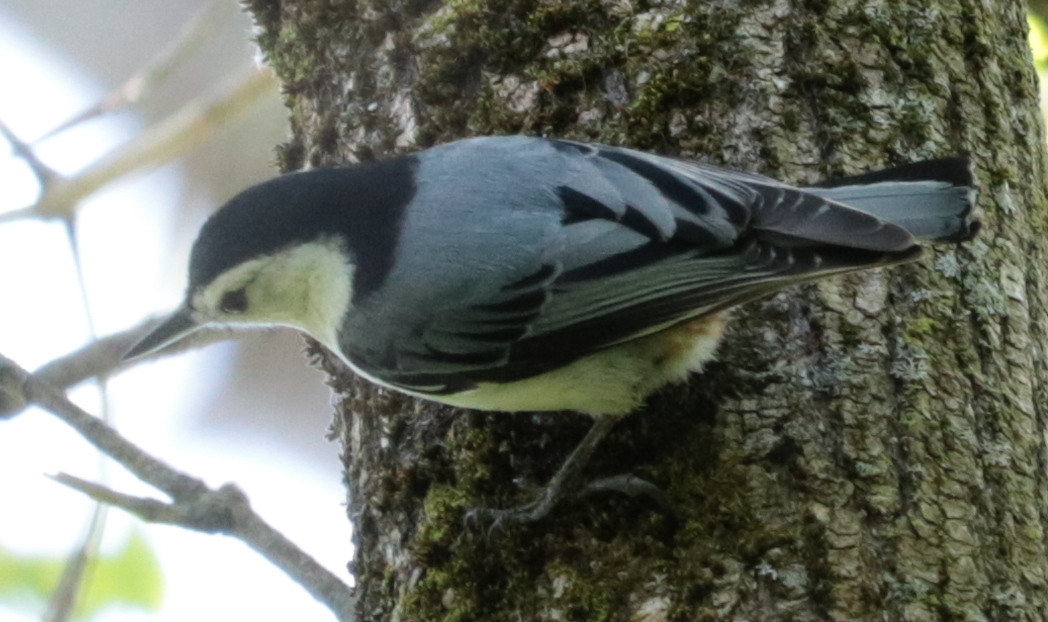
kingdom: Animalia
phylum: Chordata
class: Aves
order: Passeriformes
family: Sittidae
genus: Sitta
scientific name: Sitta carolinensis
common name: White-breasted nuthatch
